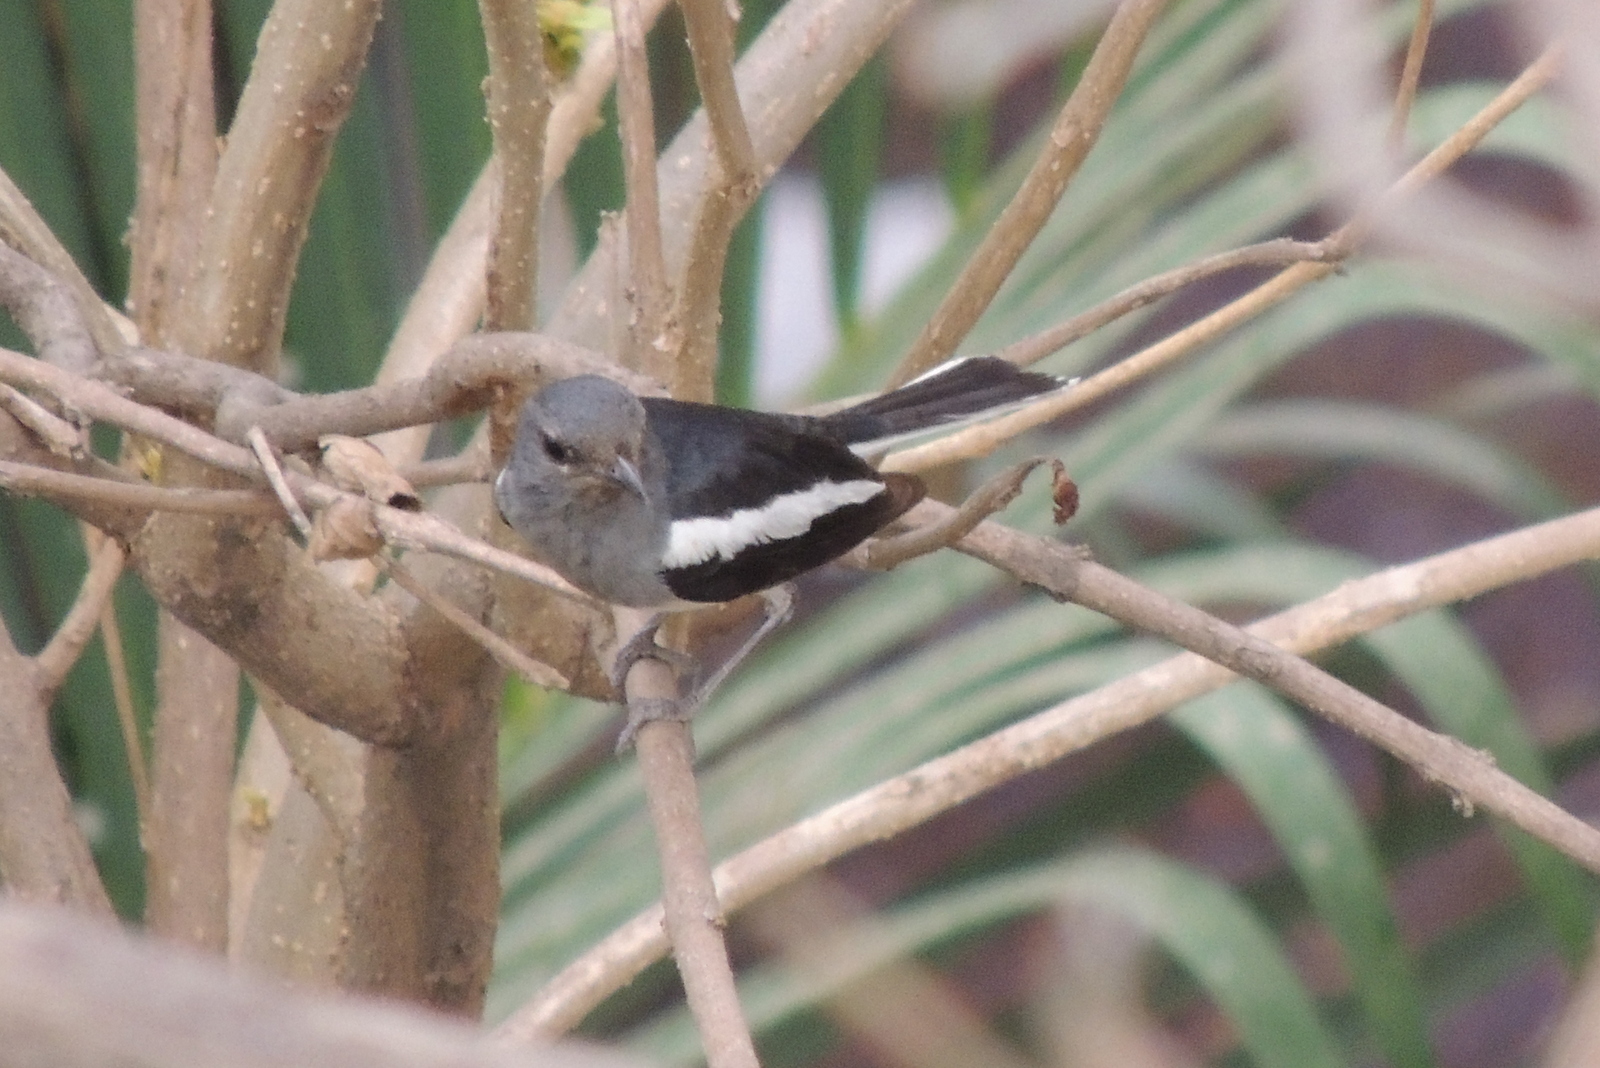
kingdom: Animalia
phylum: Chordata
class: Aves
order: Passeriformes
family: Muscicapidae
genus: Copsychus
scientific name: Copsychus saularis
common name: Oriental magpie-robin
